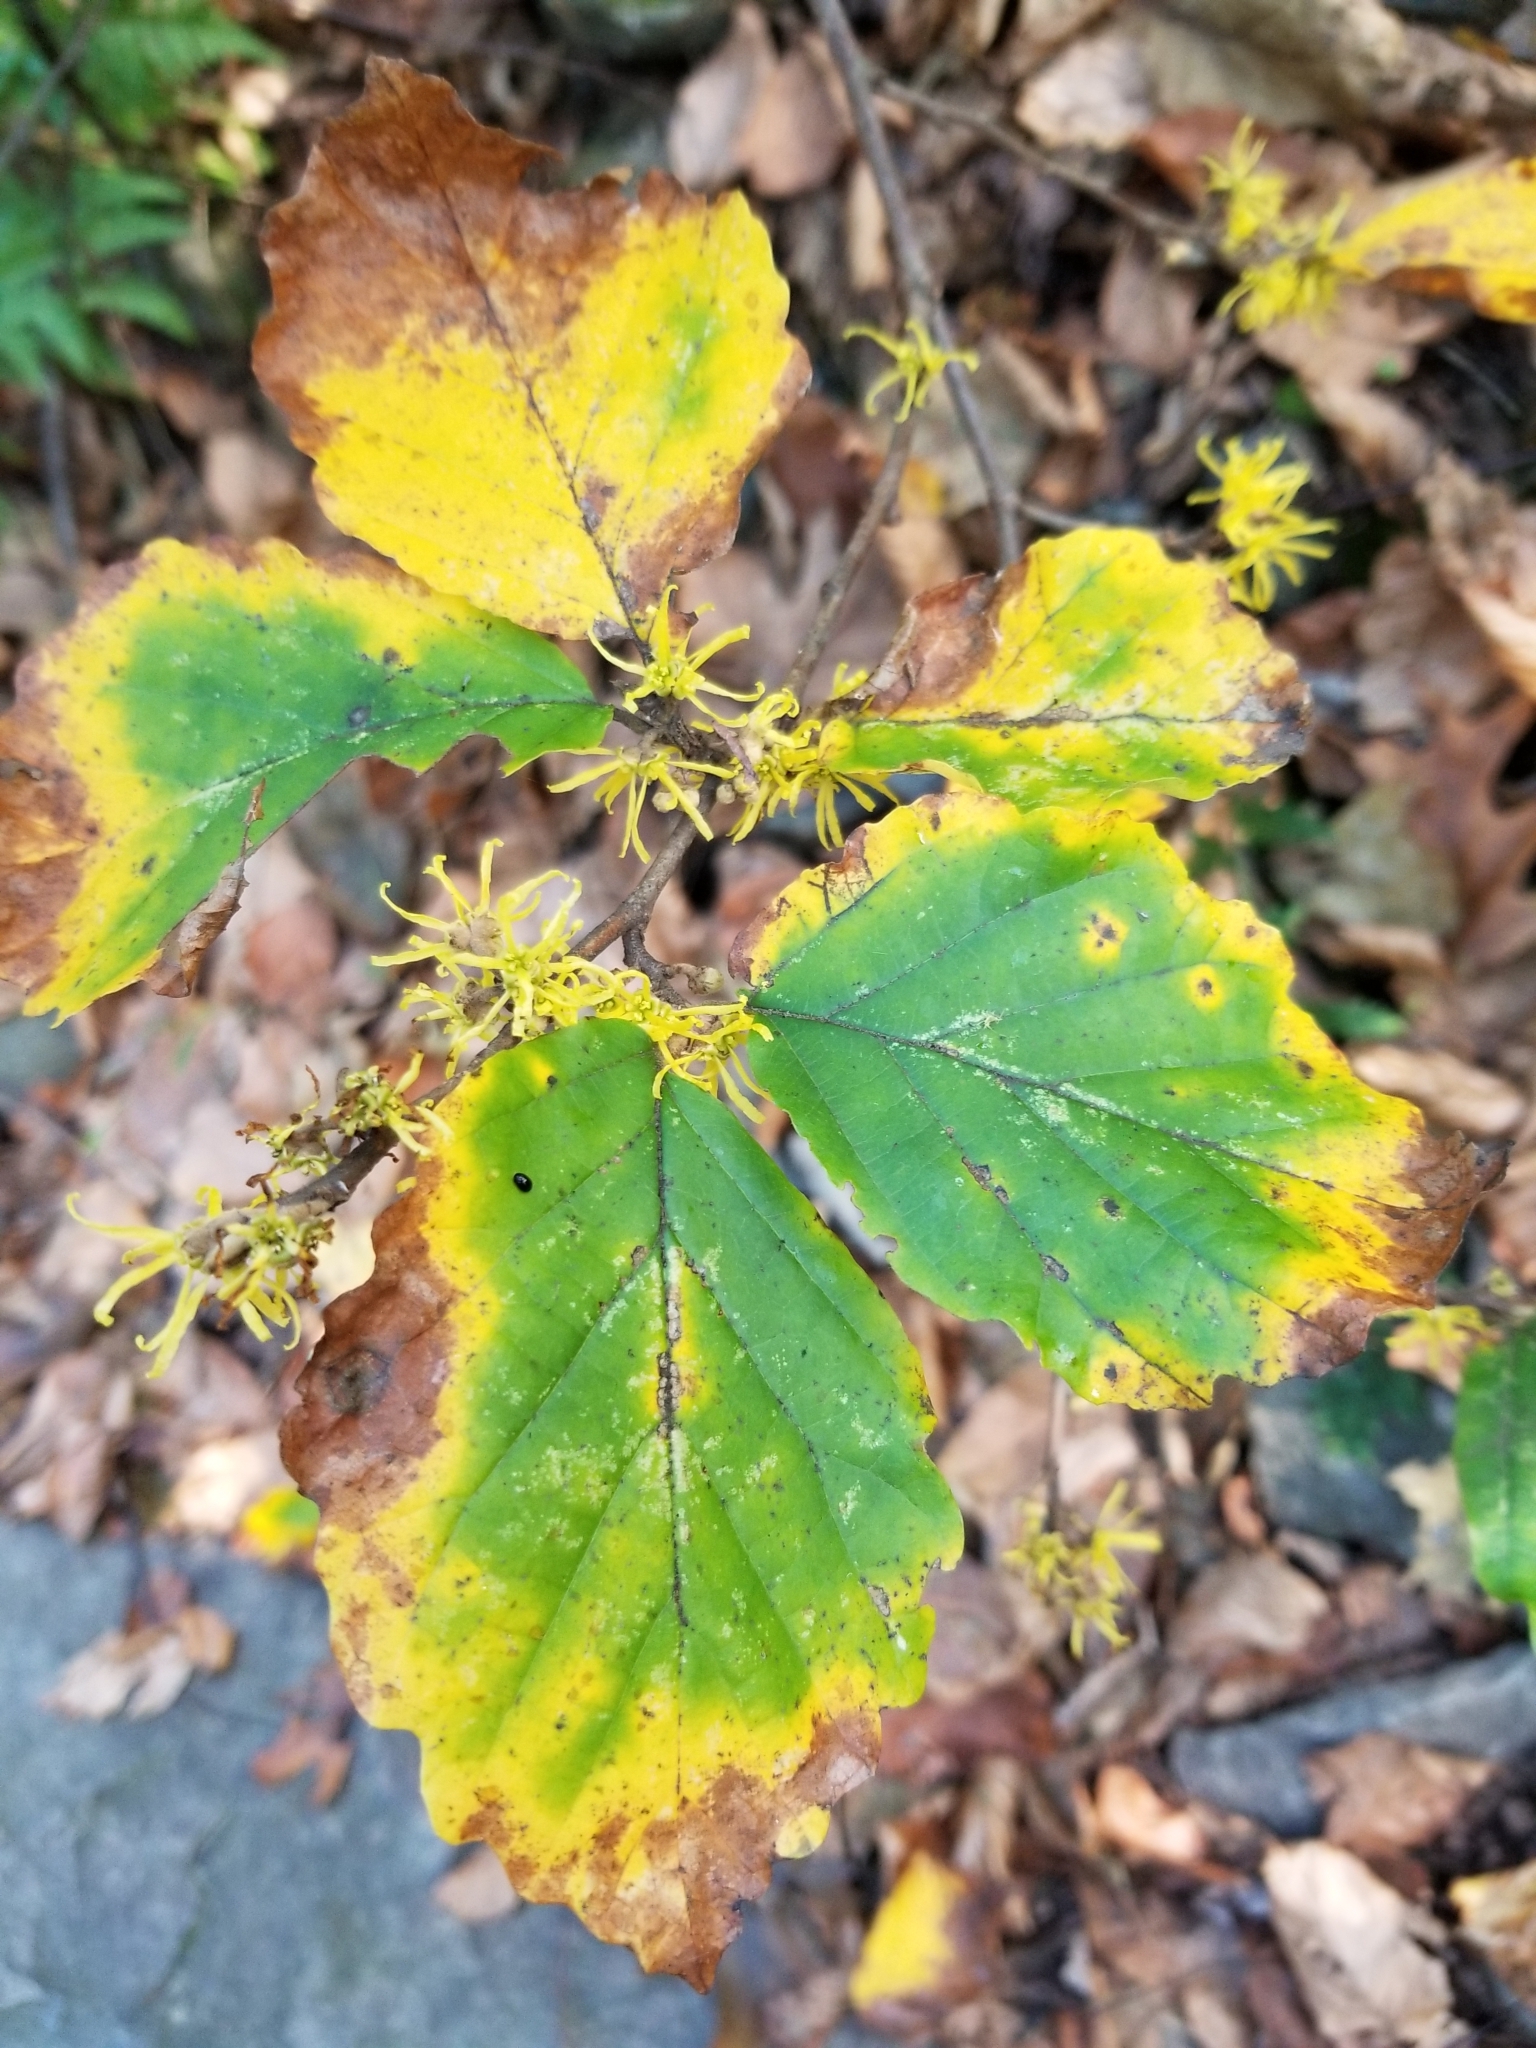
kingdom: Plantae
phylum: Tracheophyta
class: Magnoliopsida
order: Saxifragales
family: Hamamelidaceae
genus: Hamamelis
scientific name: Hamamelis virginiana
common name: Witch-hazel
